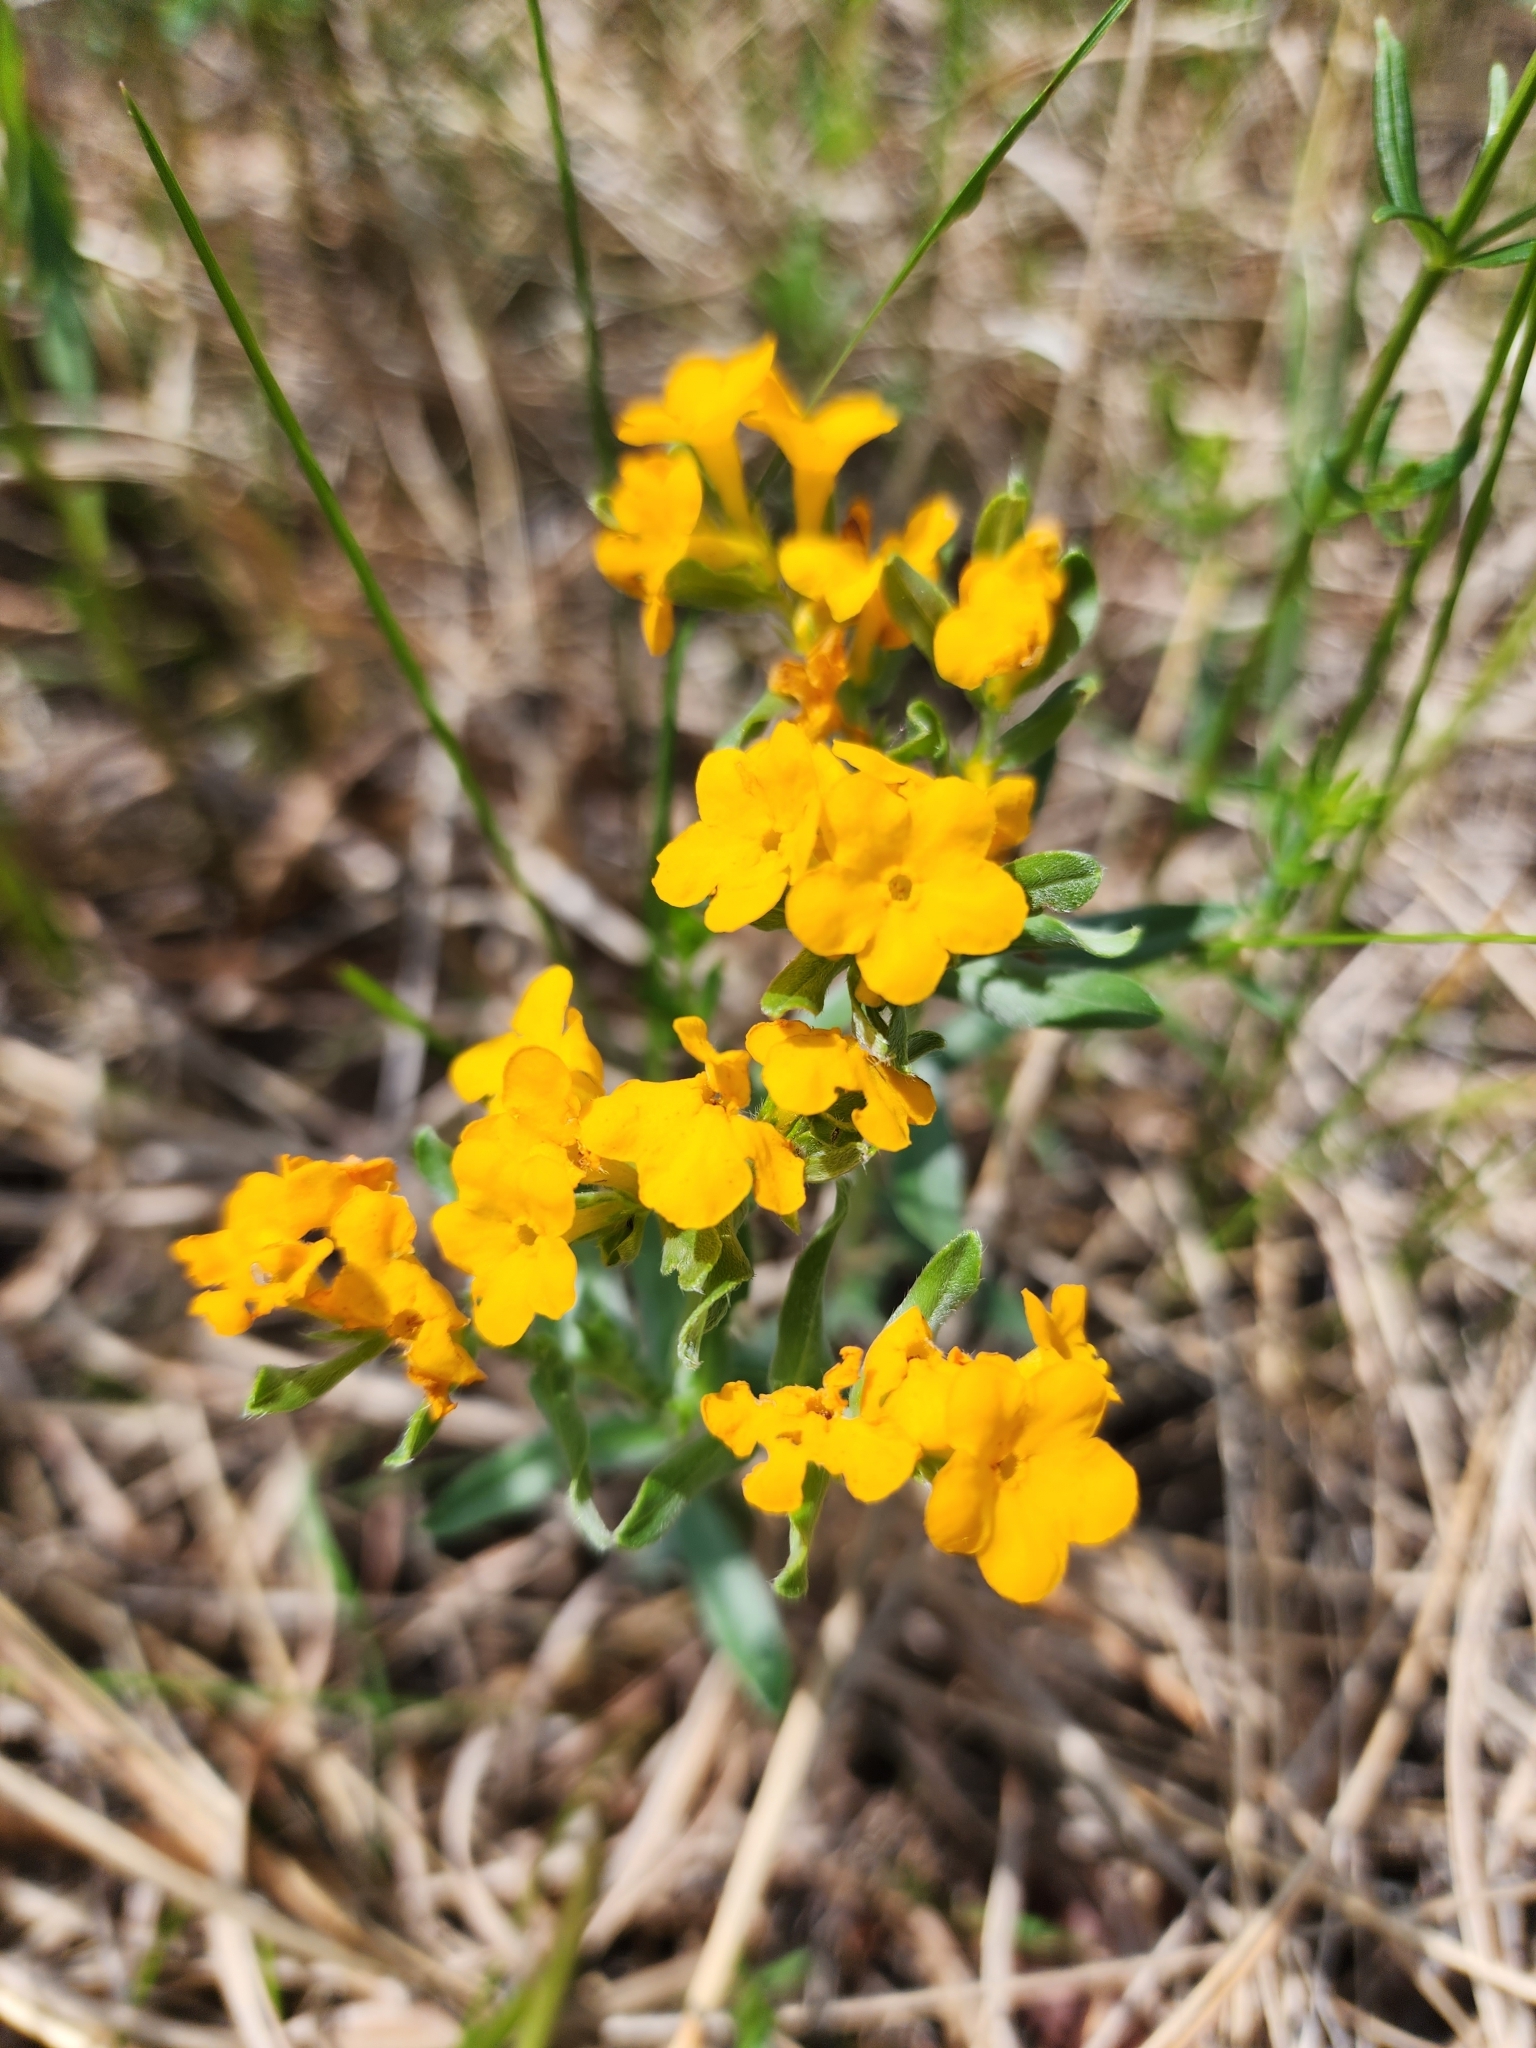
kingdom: Plantae
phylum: Tracheophyta
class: Magnoliopsida
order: Boraginales
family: Boraginaceae
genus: Lithospermum
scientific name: Lithospermum canescens
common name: Hoary puccoon
